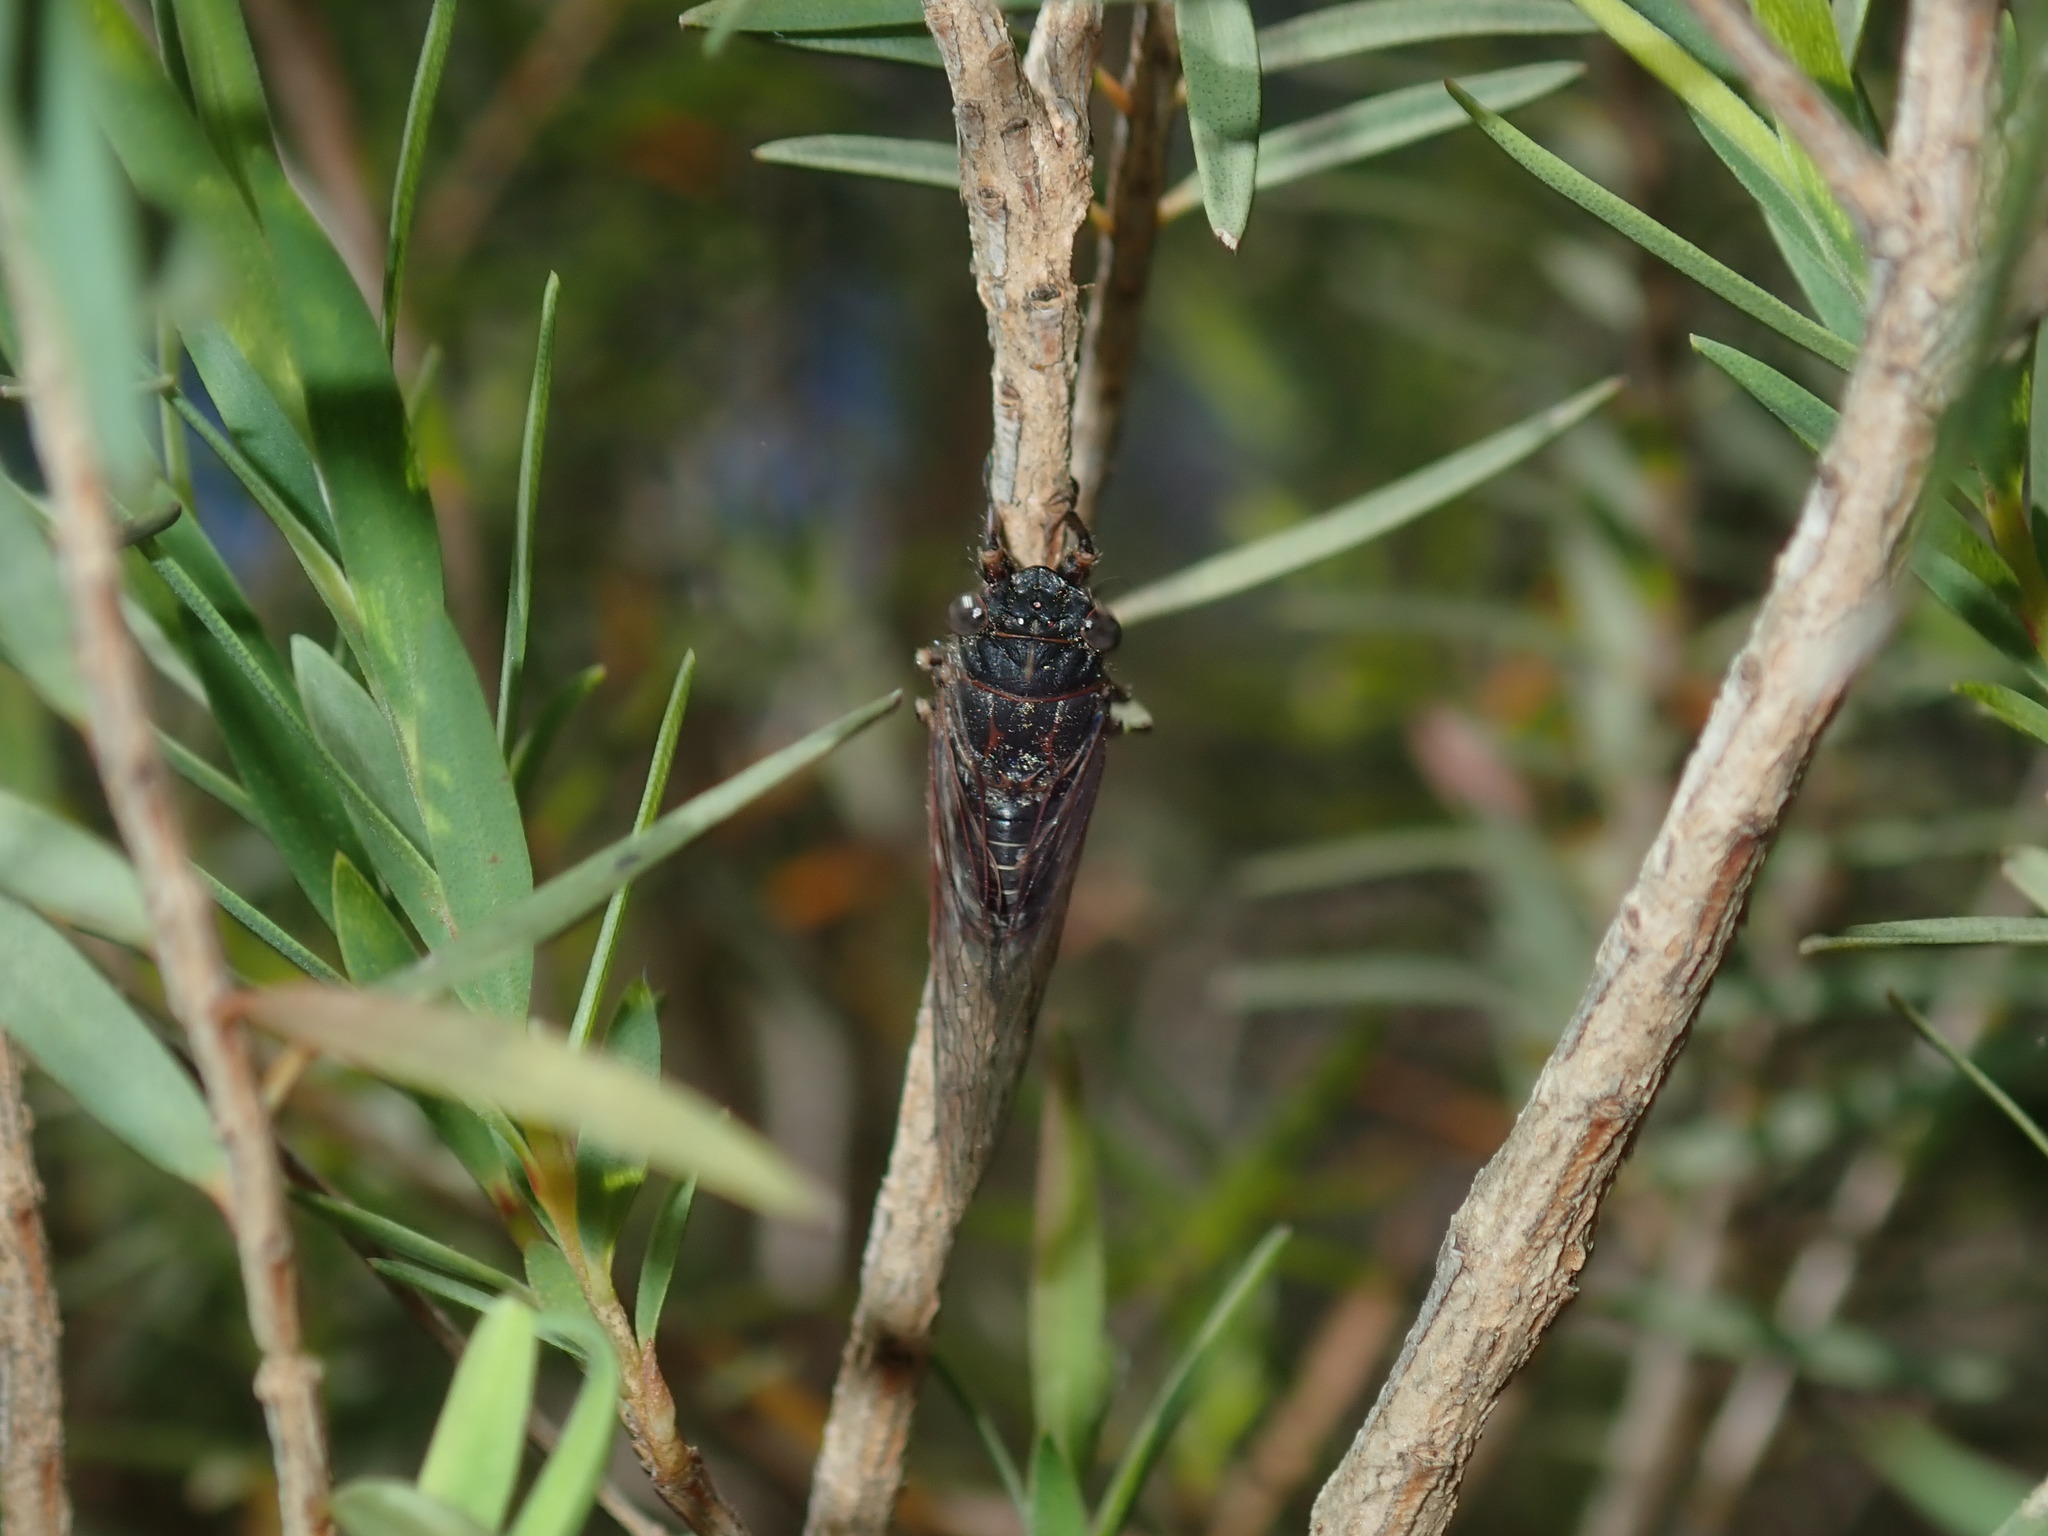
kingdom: Animalia
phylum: Arthropoda
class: Insecta
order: Hemiptera
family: Cicadidae
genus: Atrapsalta
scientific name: Atrapsalta corticina
